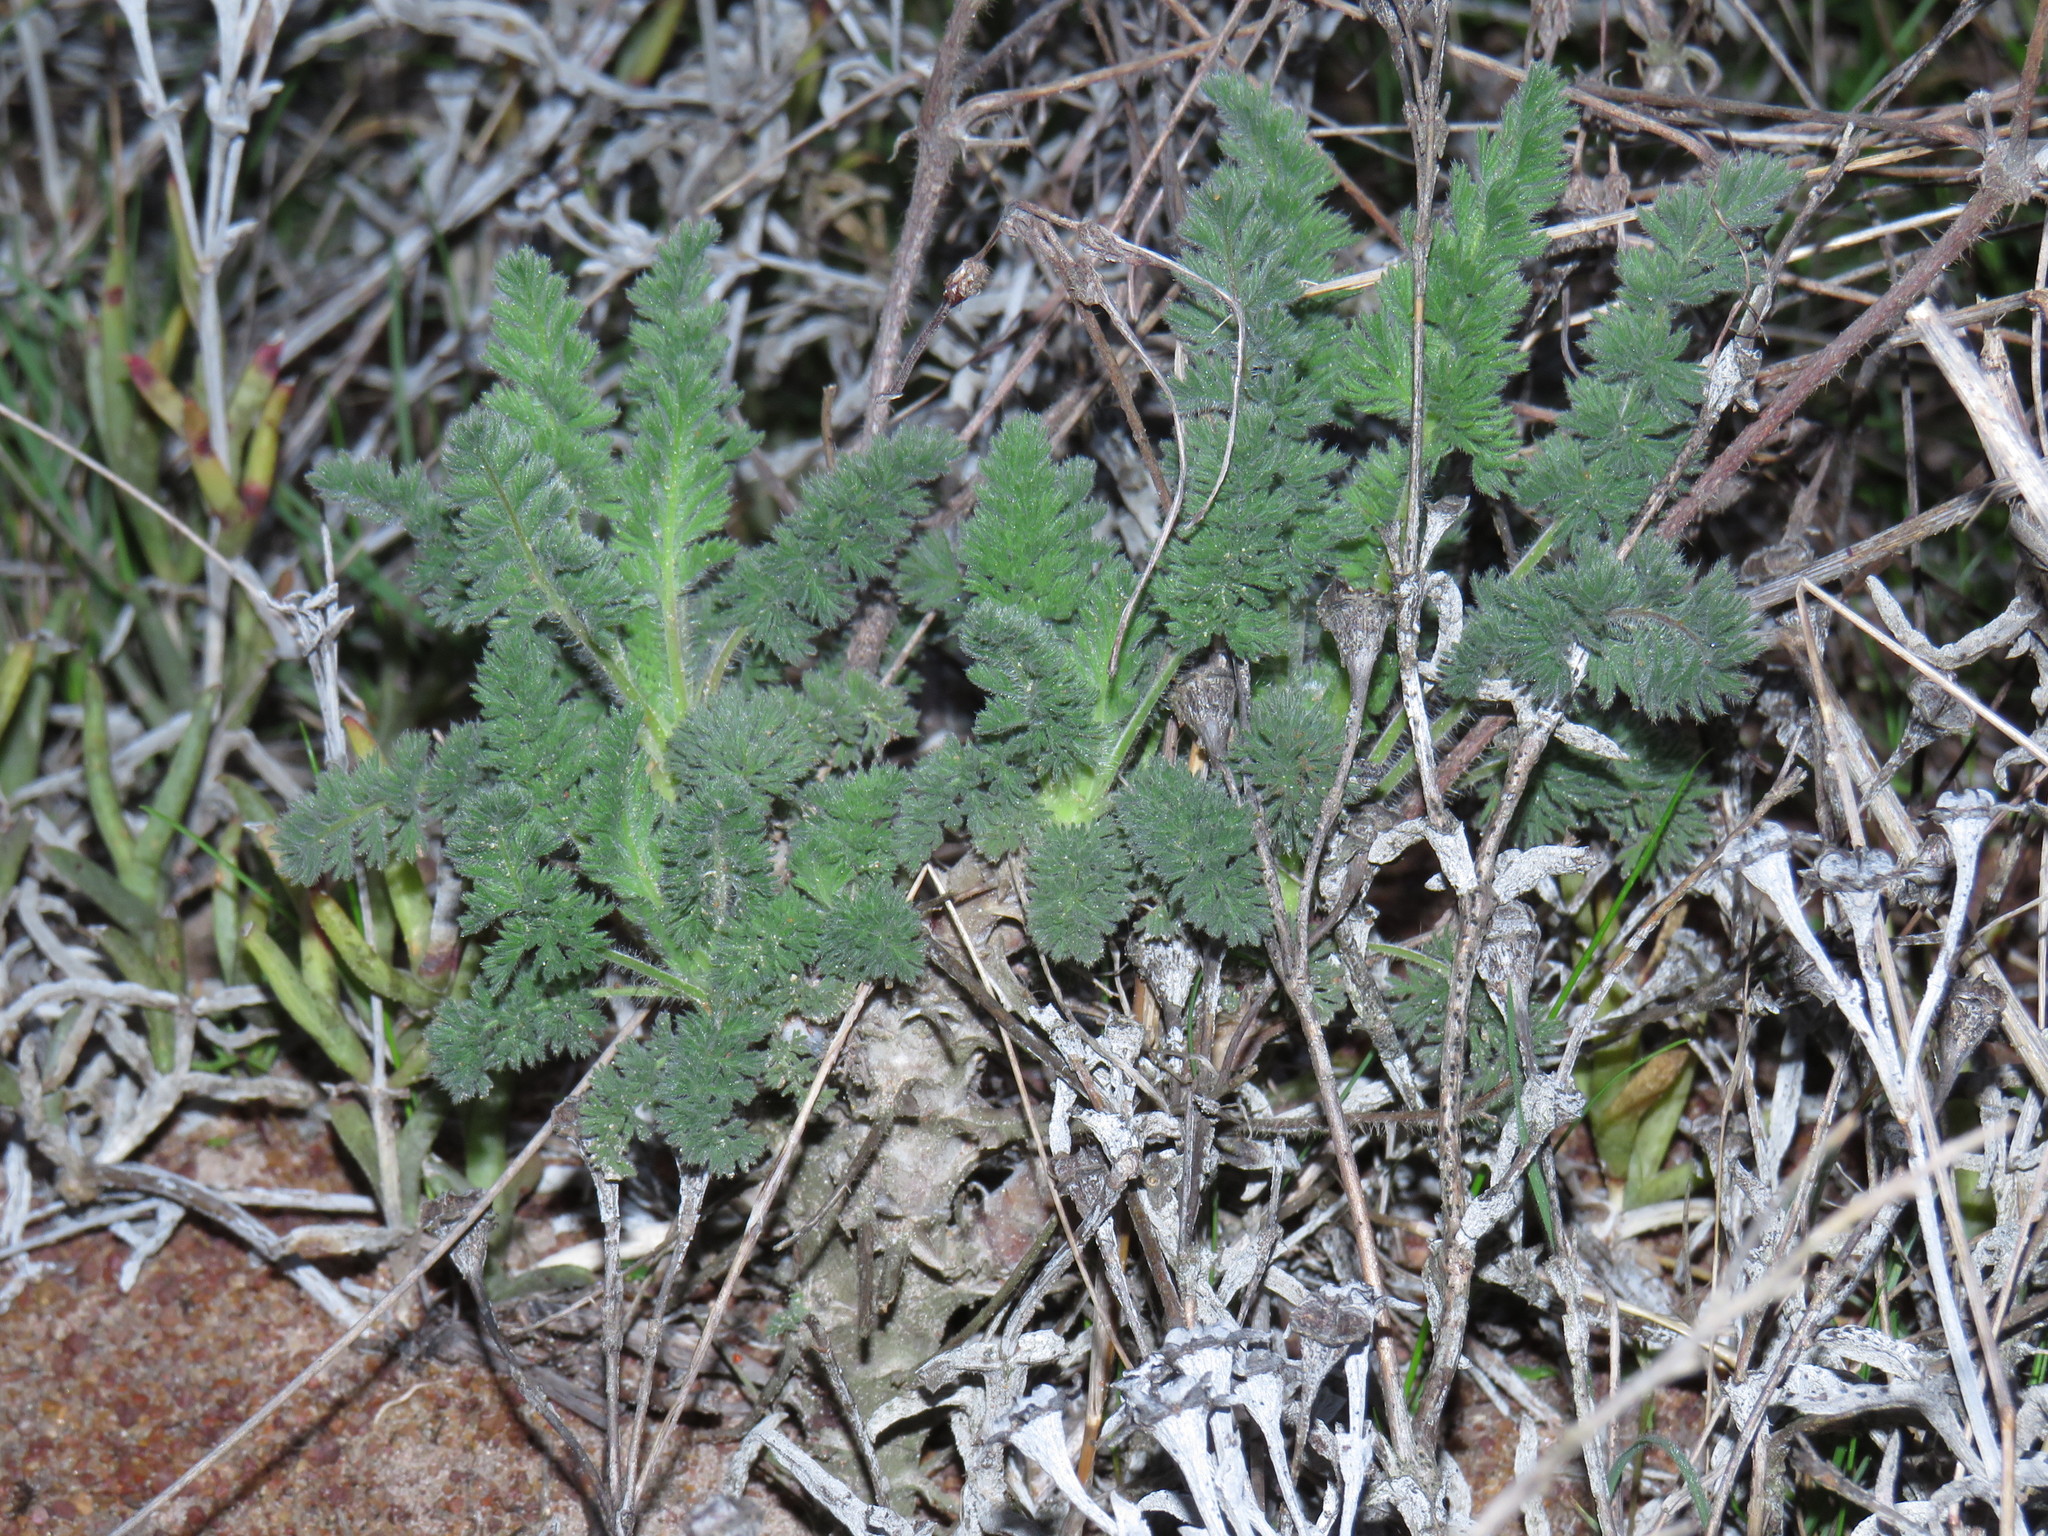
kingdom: Plantae
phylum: Tracheophyta
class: Magnoliopsida
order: Geraniales
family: Geraniaceae
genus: Pelargonium
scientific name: Pelargonium hirtum
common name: Fine-leaf pelargonium
